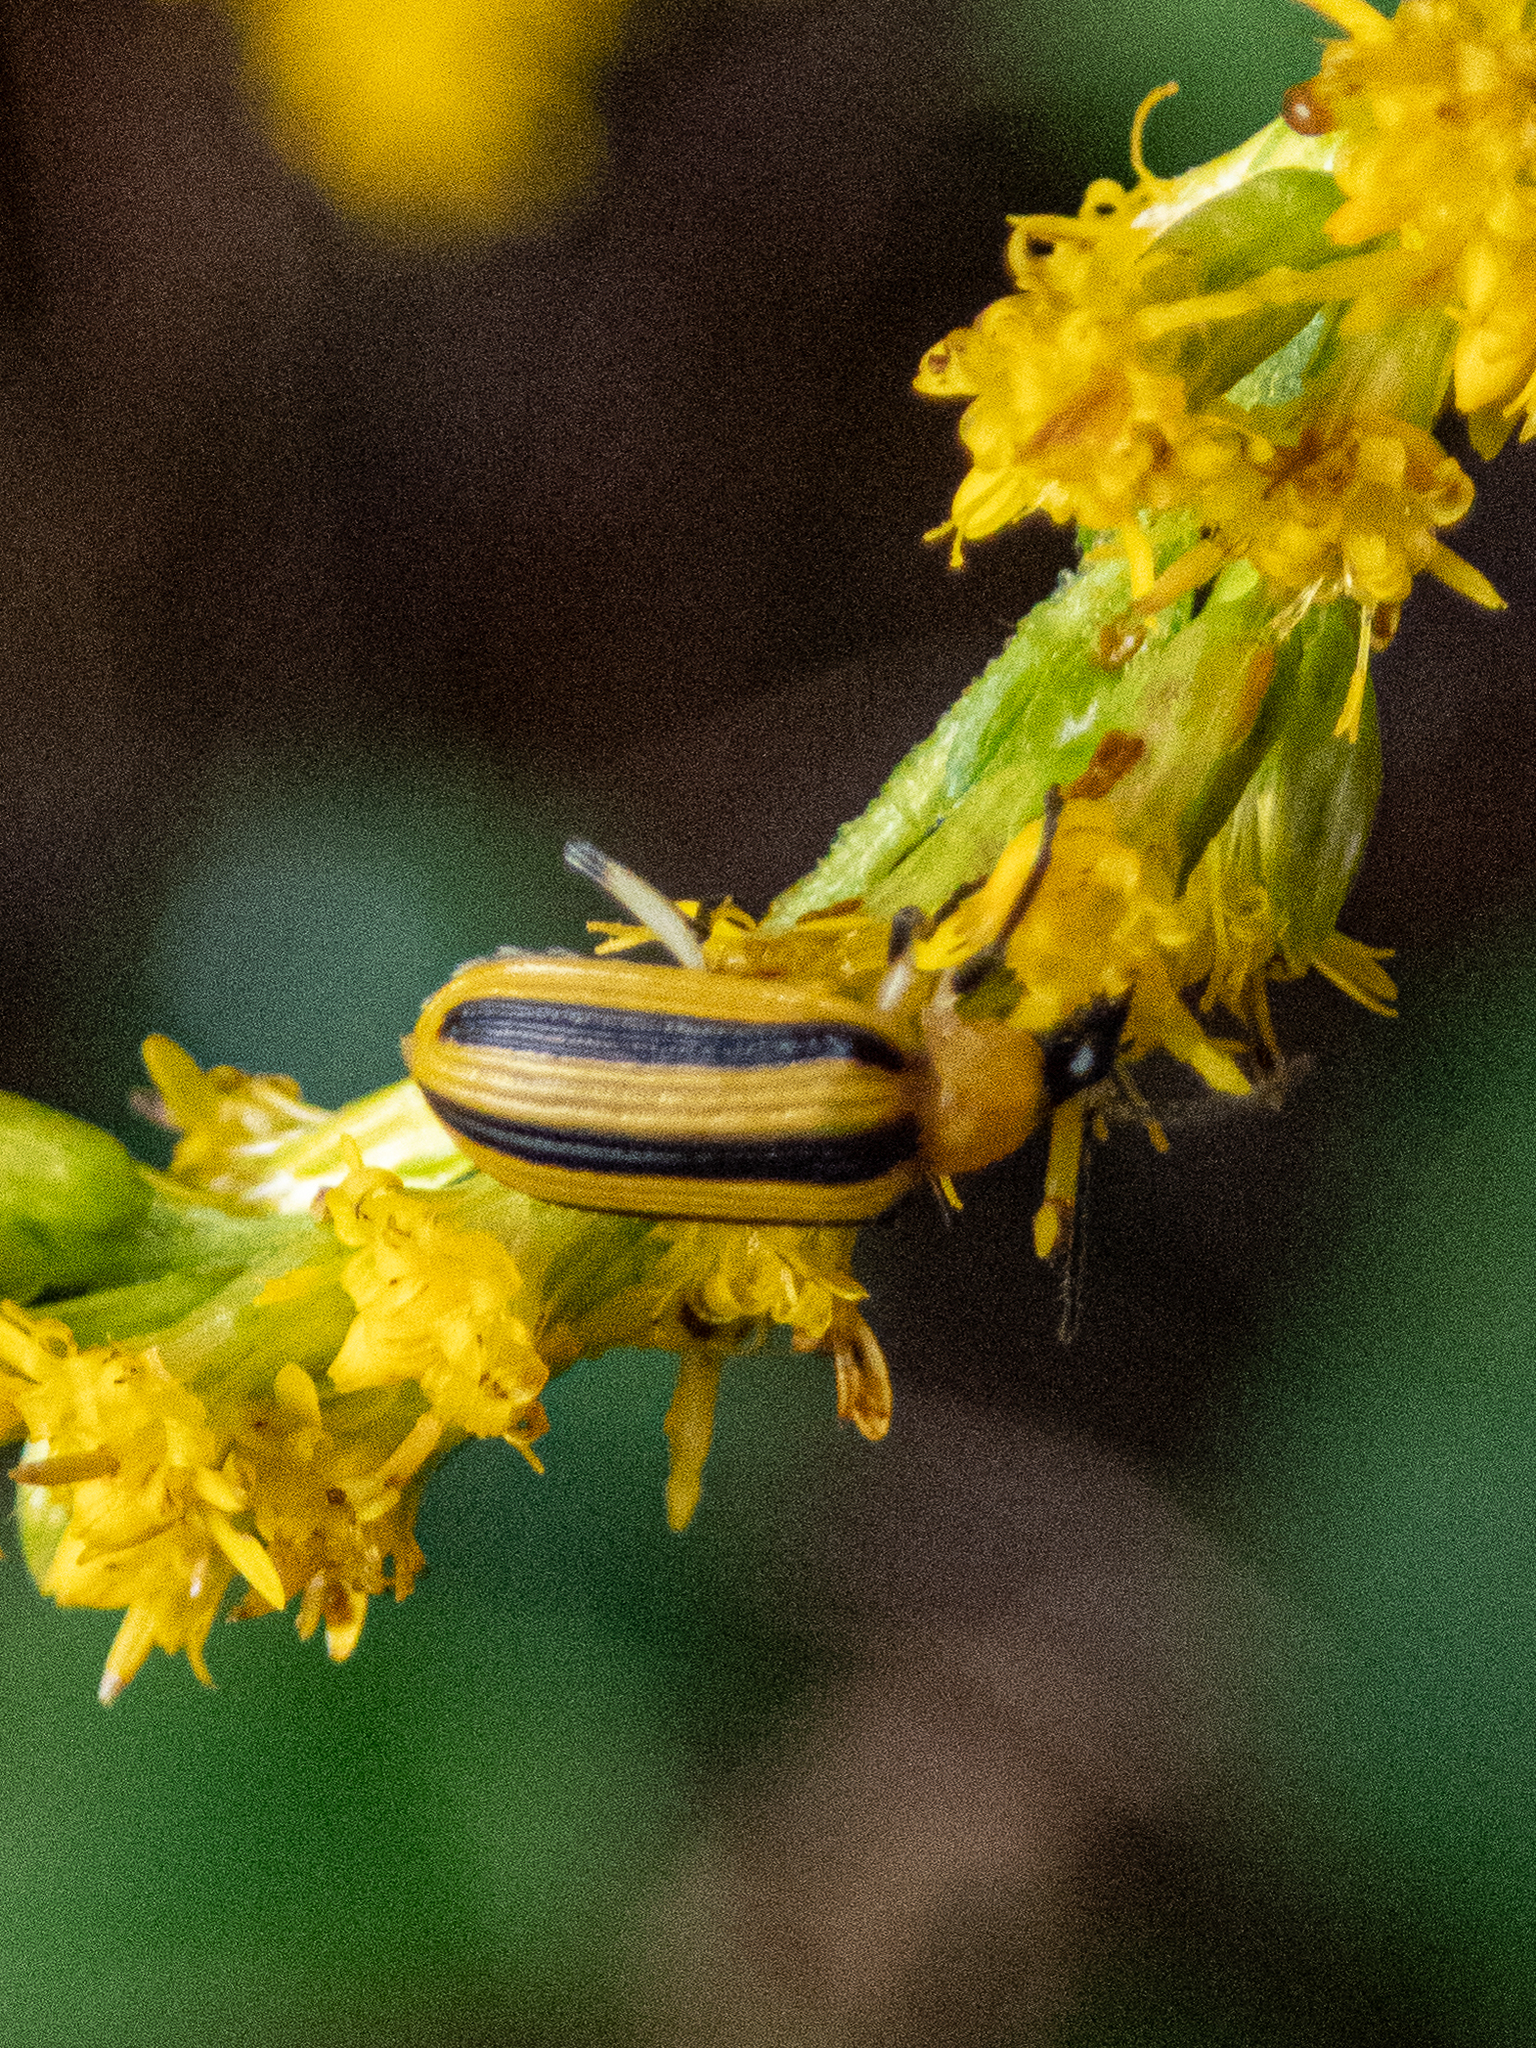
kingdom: Animalia
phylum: Arthropoda
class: Insecta
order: Coleoptera
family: Chrysomelidae
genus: Acalymma
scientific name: Acalymma vittatum
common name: Striped cucumber beetle
